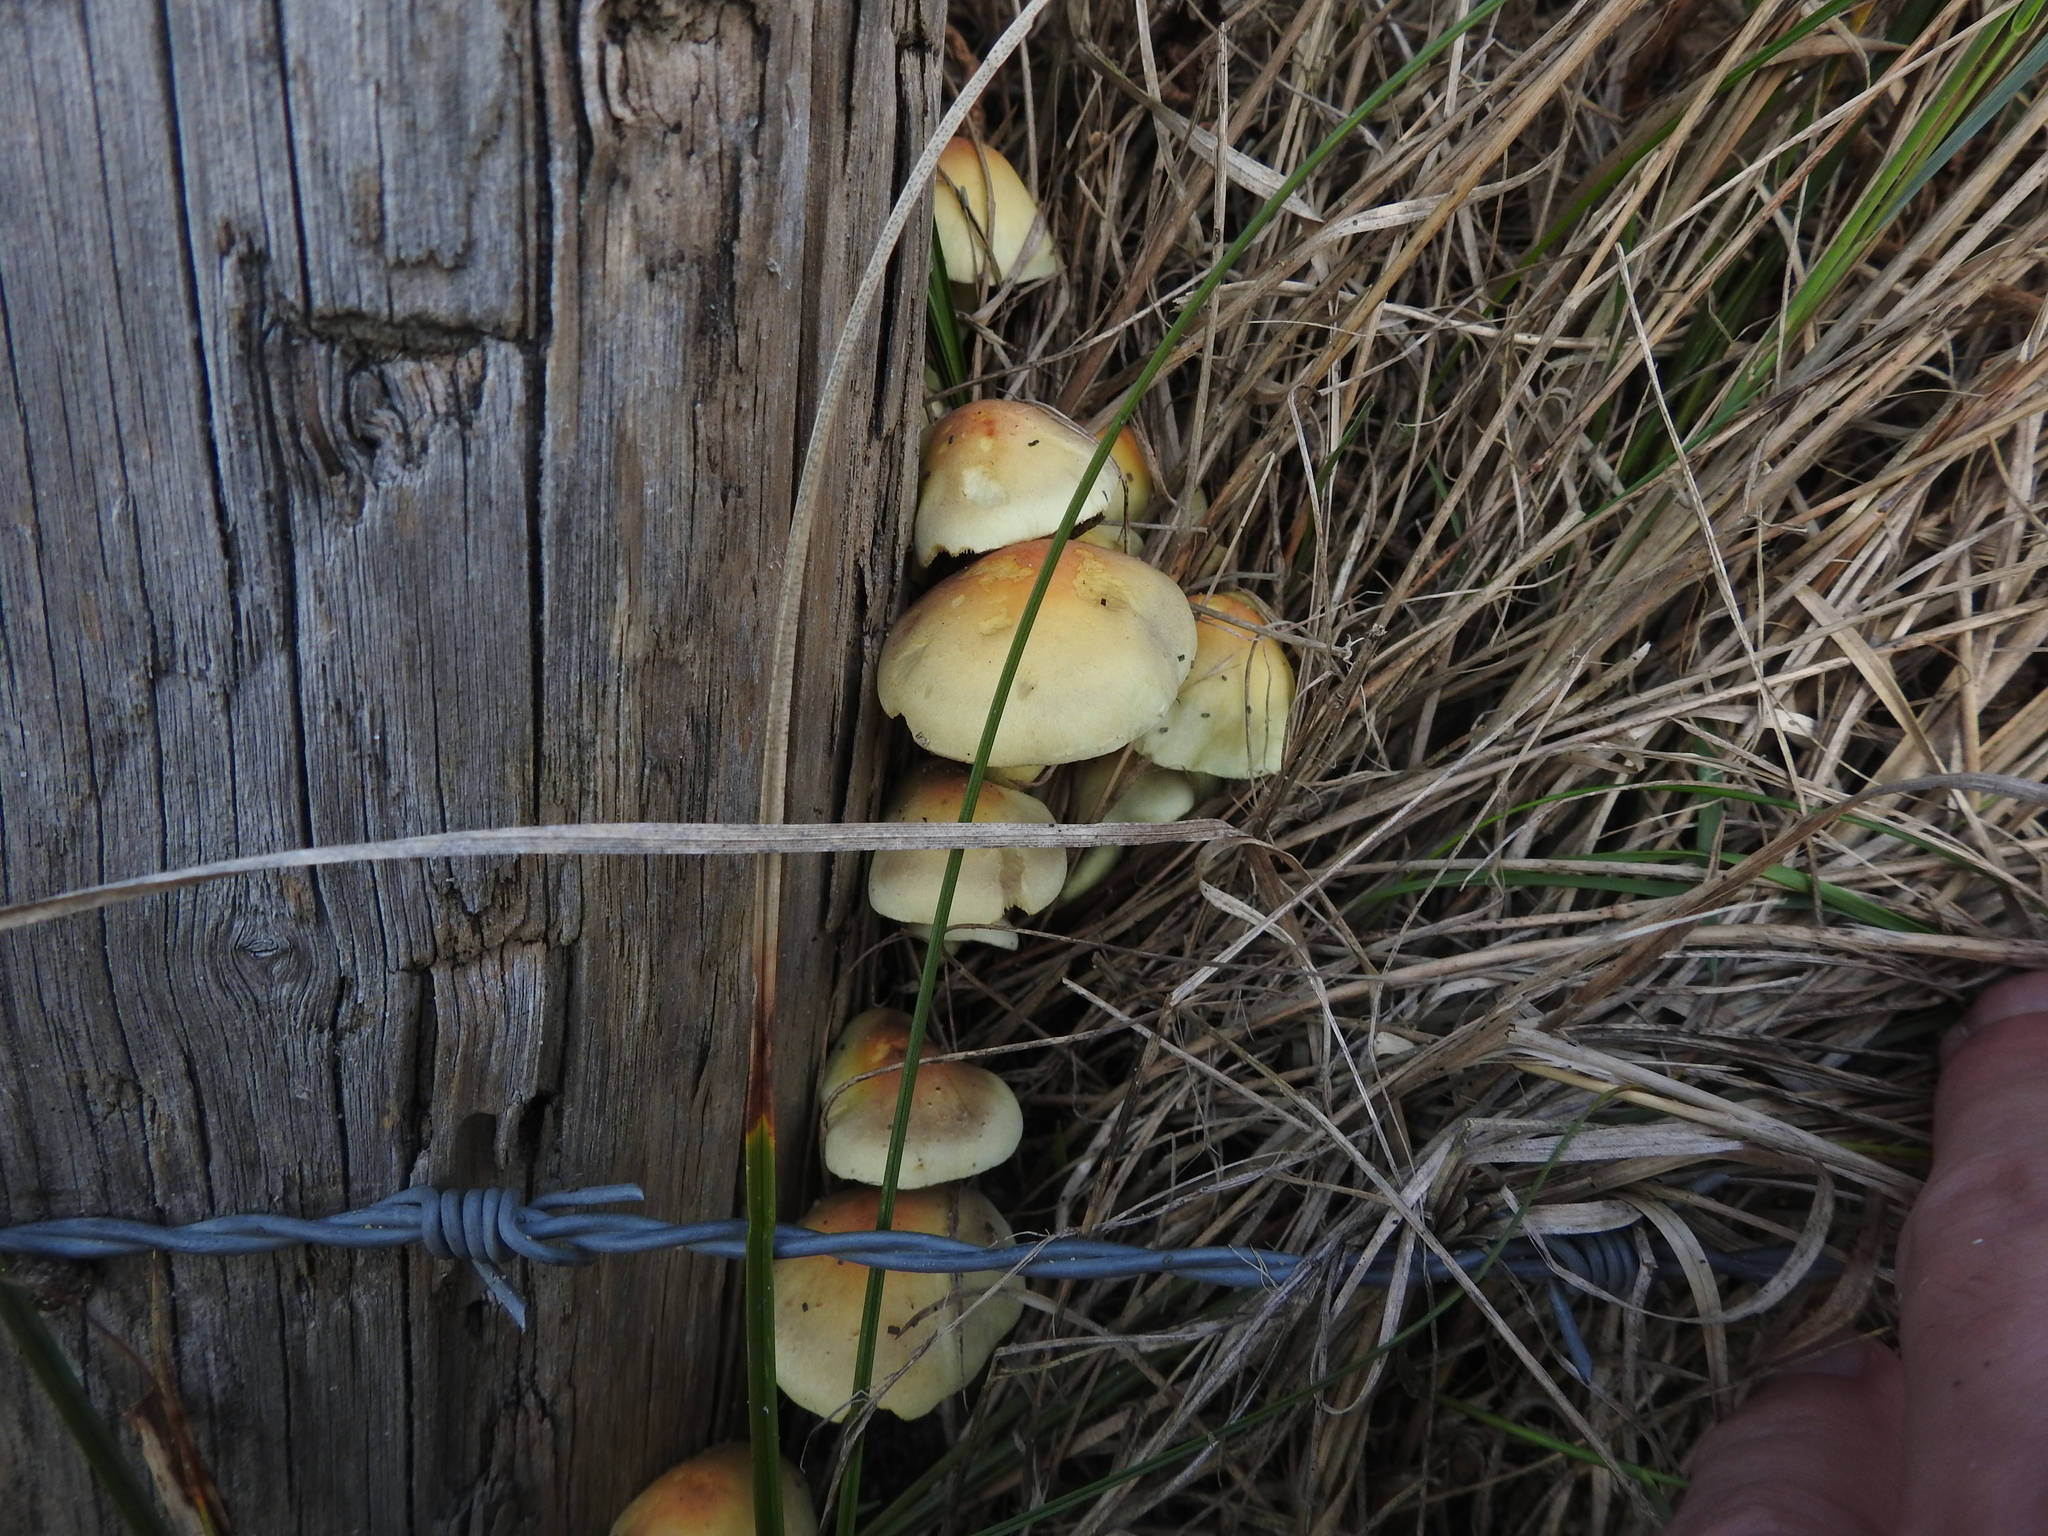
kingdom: Fungi
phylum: Basidiomycota
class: Agaricomycetes
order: Agaricales
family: Strophariaceae
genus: Hypholoma
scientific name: Hypholoma fasciculare
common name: Sulphur tuft
